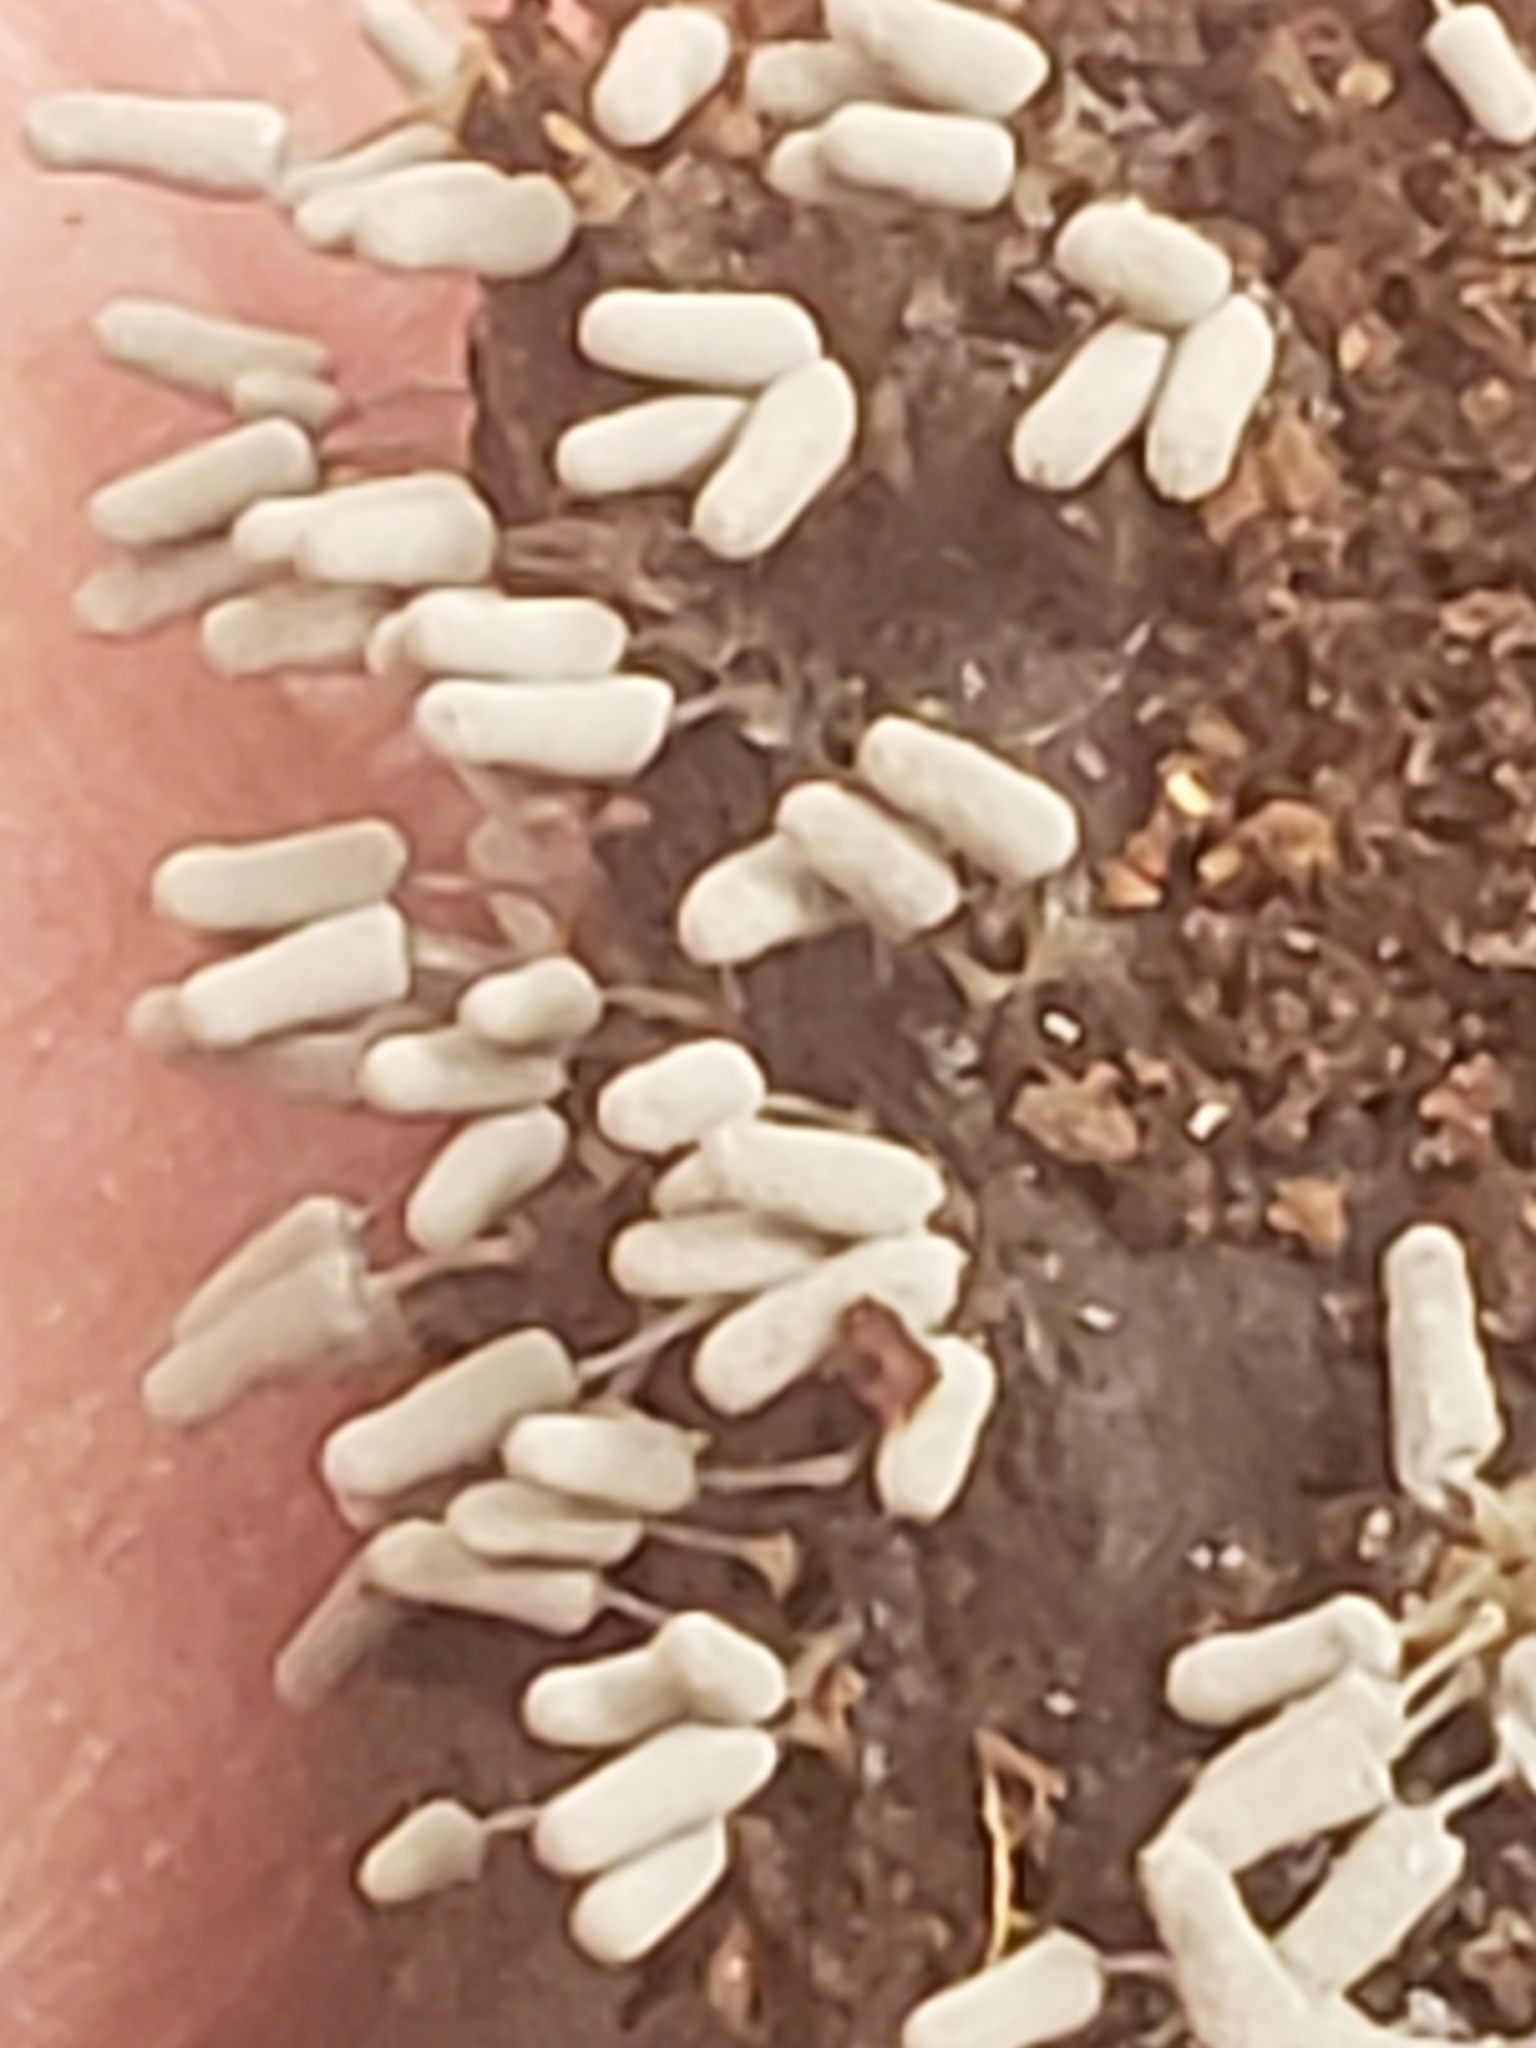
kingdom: Protozoa
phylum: Mycetozoa
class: Myxomycetes
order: Trichiales
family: Arcyriaceae
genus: Arcyria
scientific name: Arcyria cinerea
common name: White carnival candy slime mold
